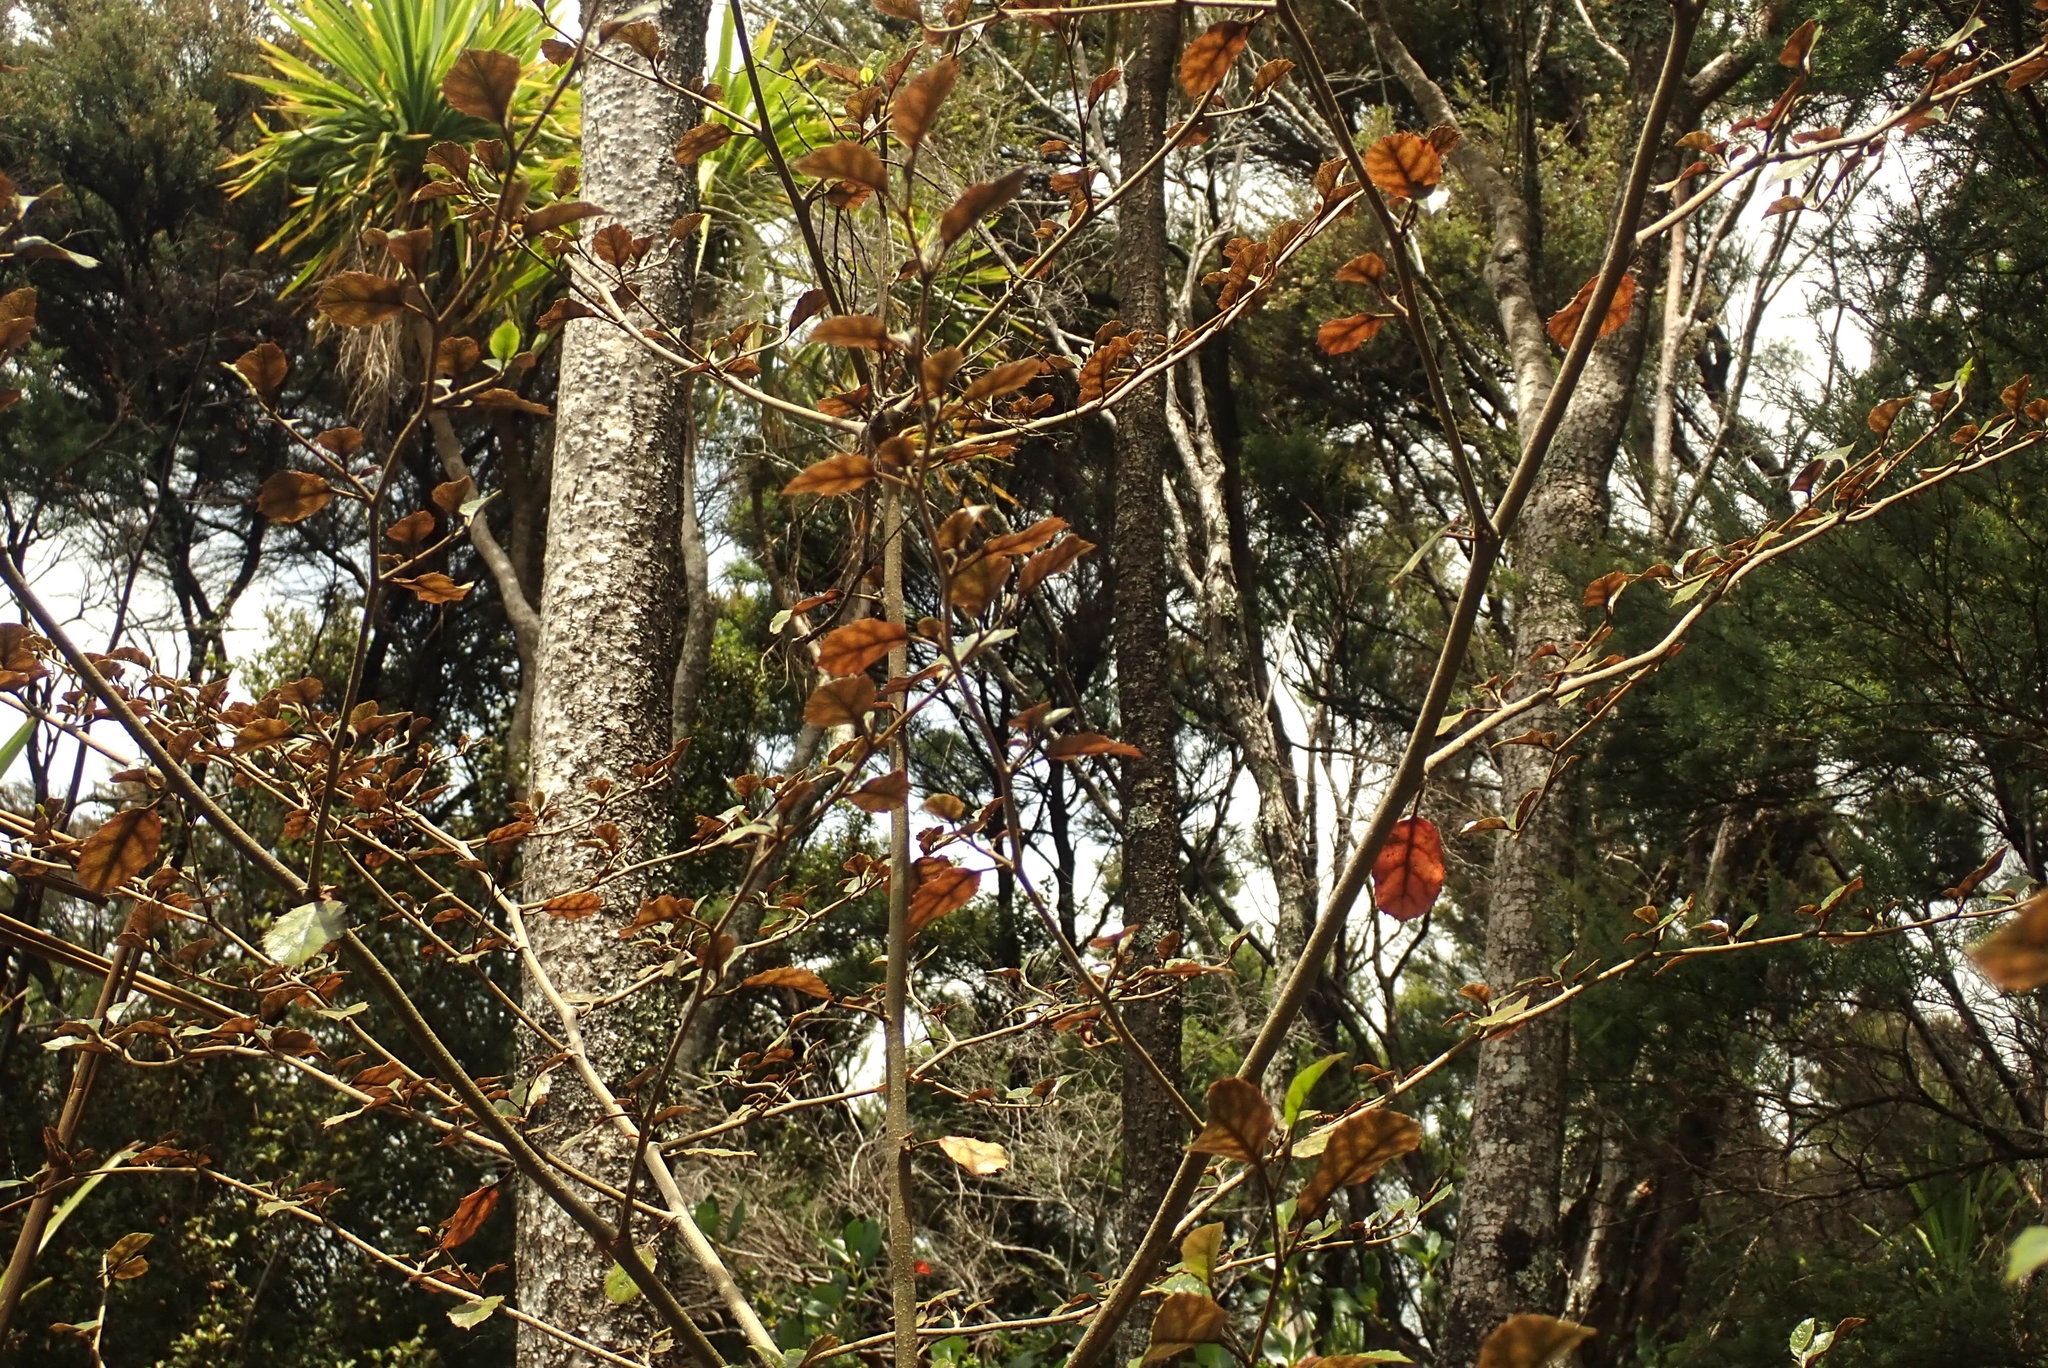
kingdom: Plantae
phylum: Tracheophyta
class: Magnoliopsida
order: Asterales
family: Rousseaceae
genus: Carpodetus
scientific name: Carpodetus serratus
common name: White mapau
